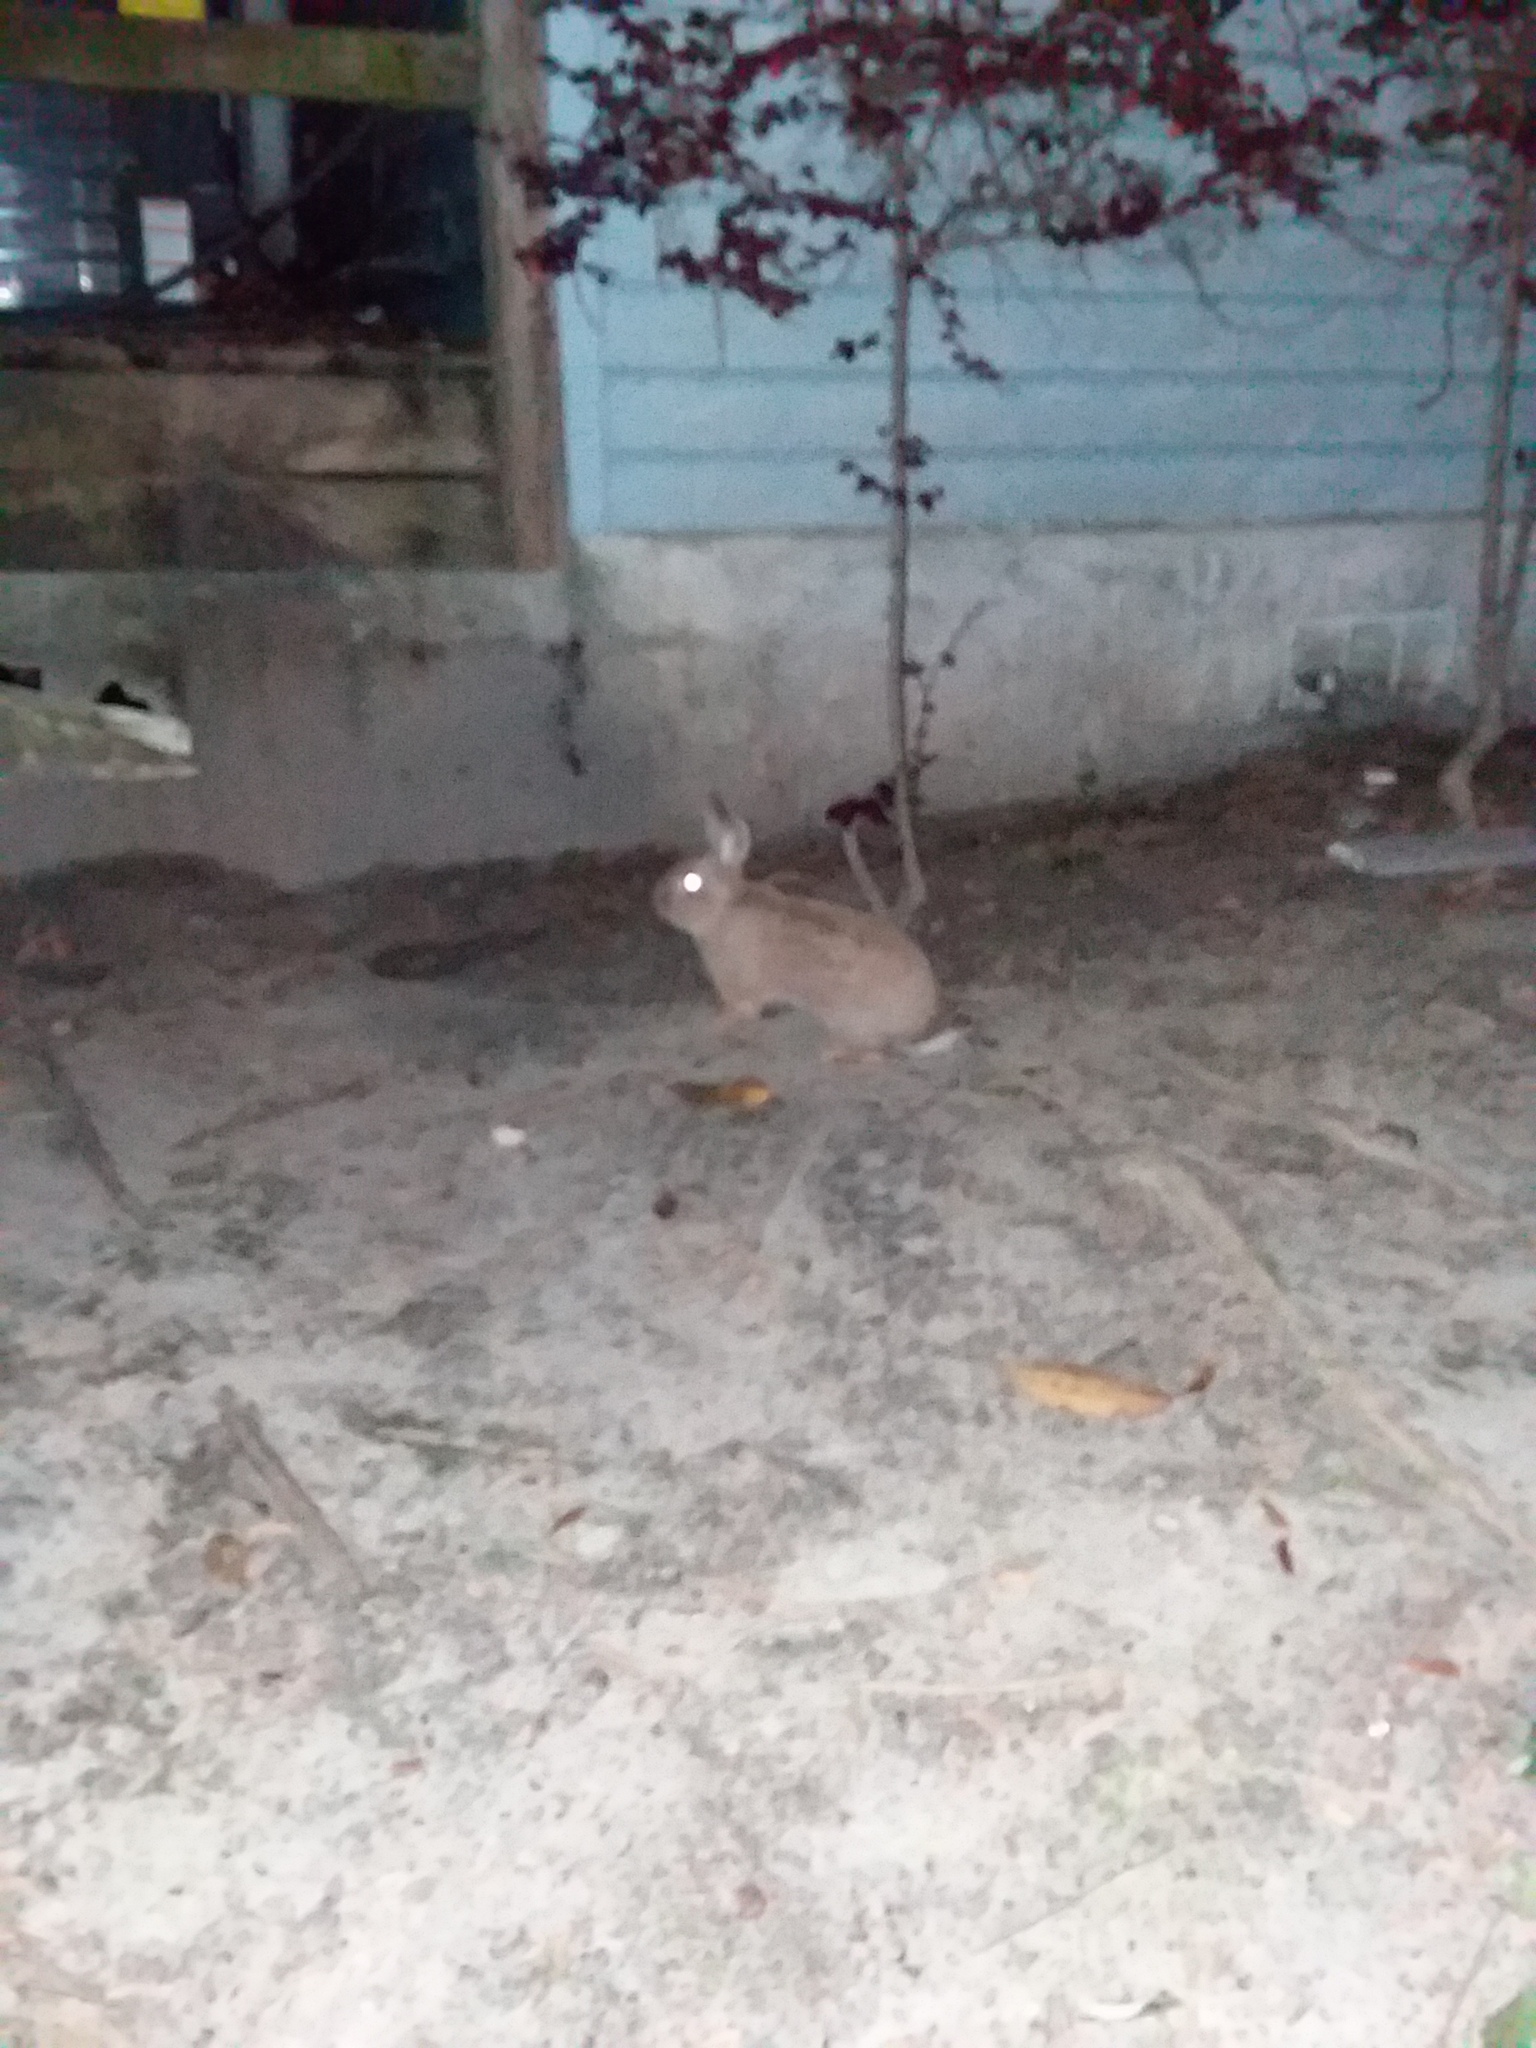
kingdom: Animalia
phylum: Chordata
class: Mammalia
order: Lagomorpha
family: Leporidae
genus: Oryctolagus
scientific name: Oryctolagus cuniculus
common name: European rabbit
